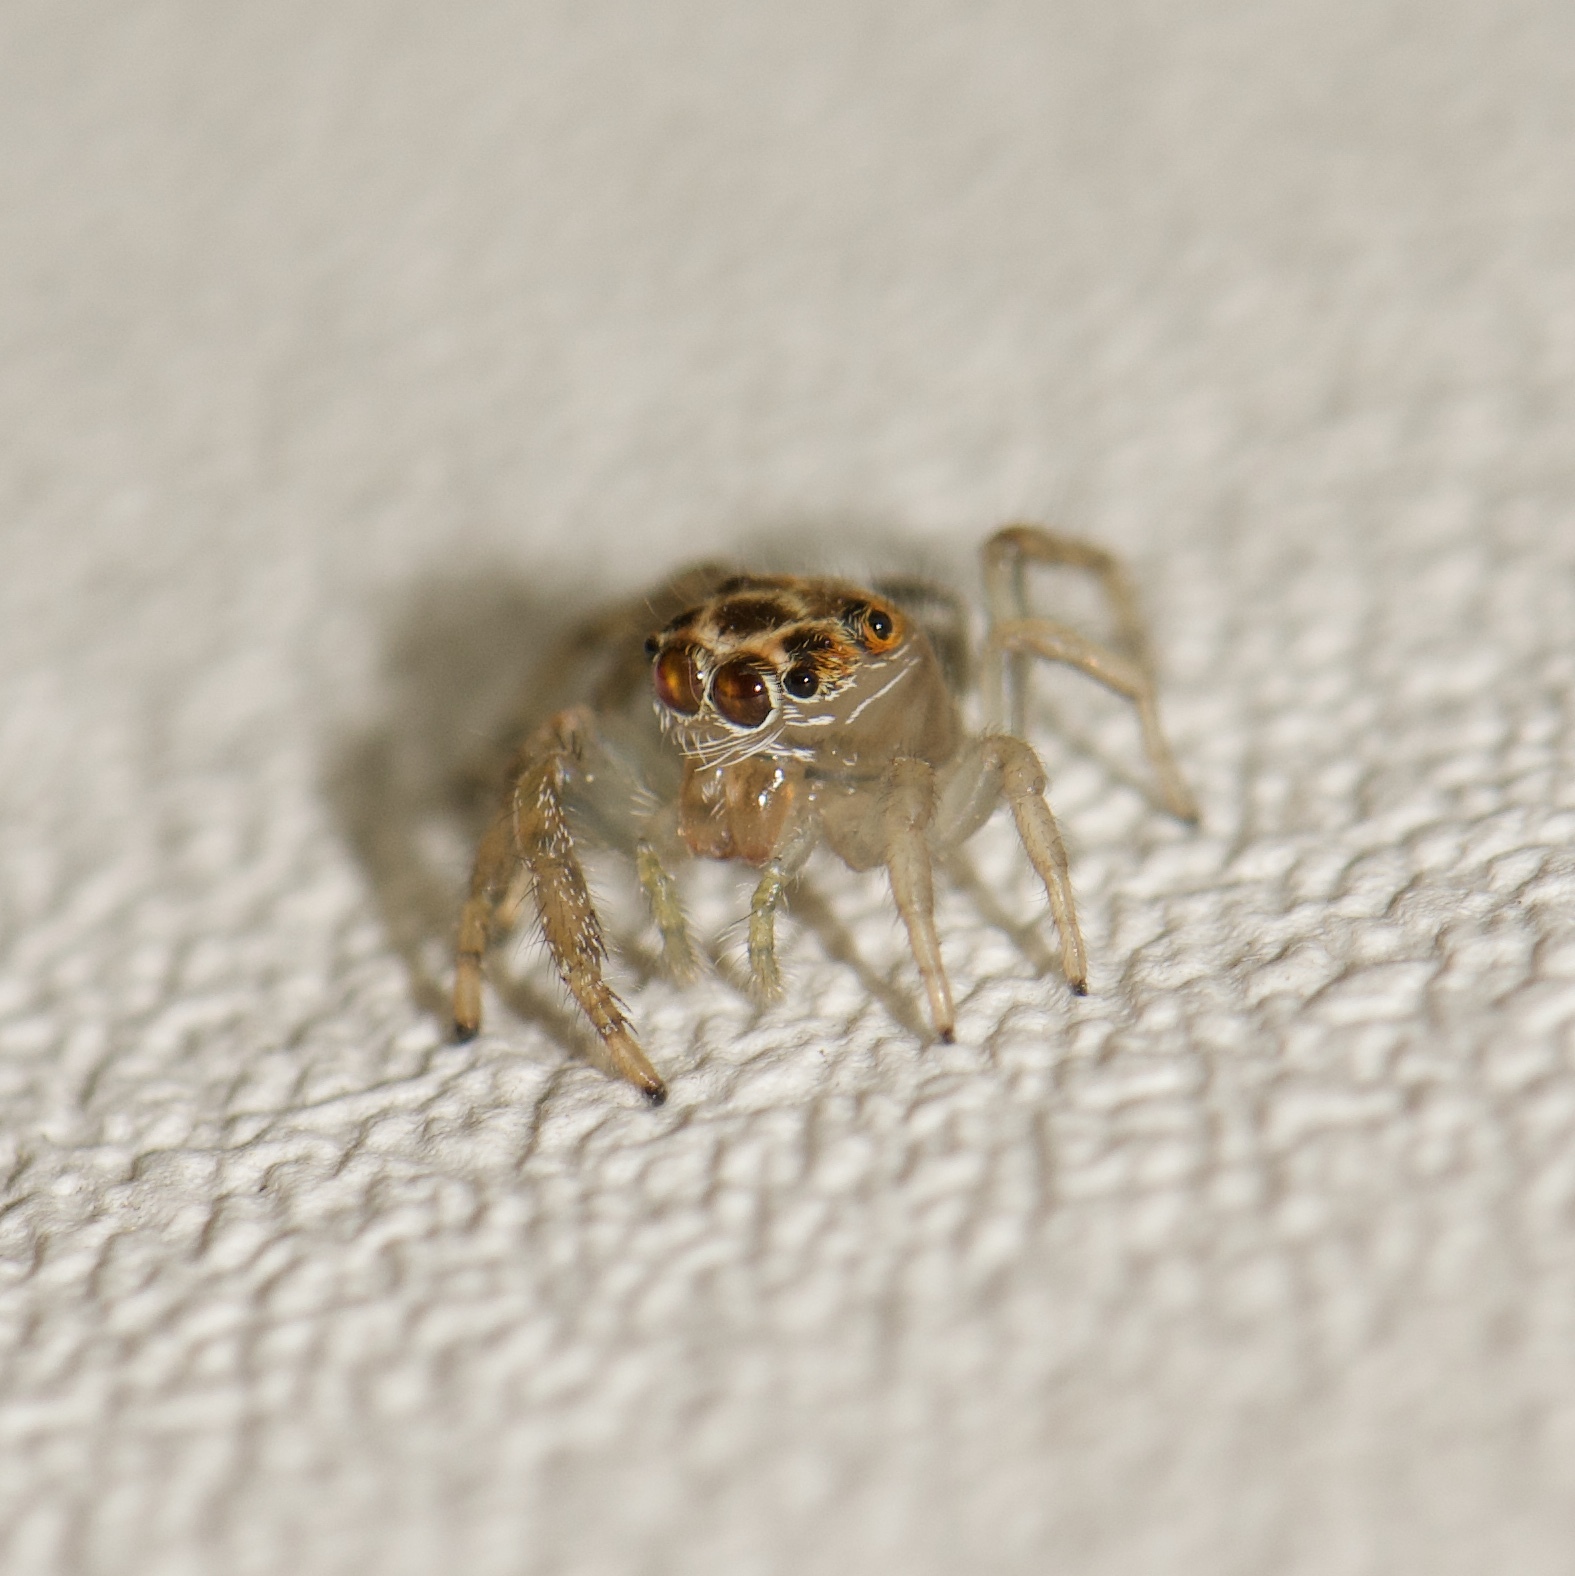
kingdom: Animalia
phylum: Arthropoda
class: Arachnida
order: Araneae
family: Salticidae
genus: Colonus
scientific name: Colonus sylvanus
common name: Jumping spiders
